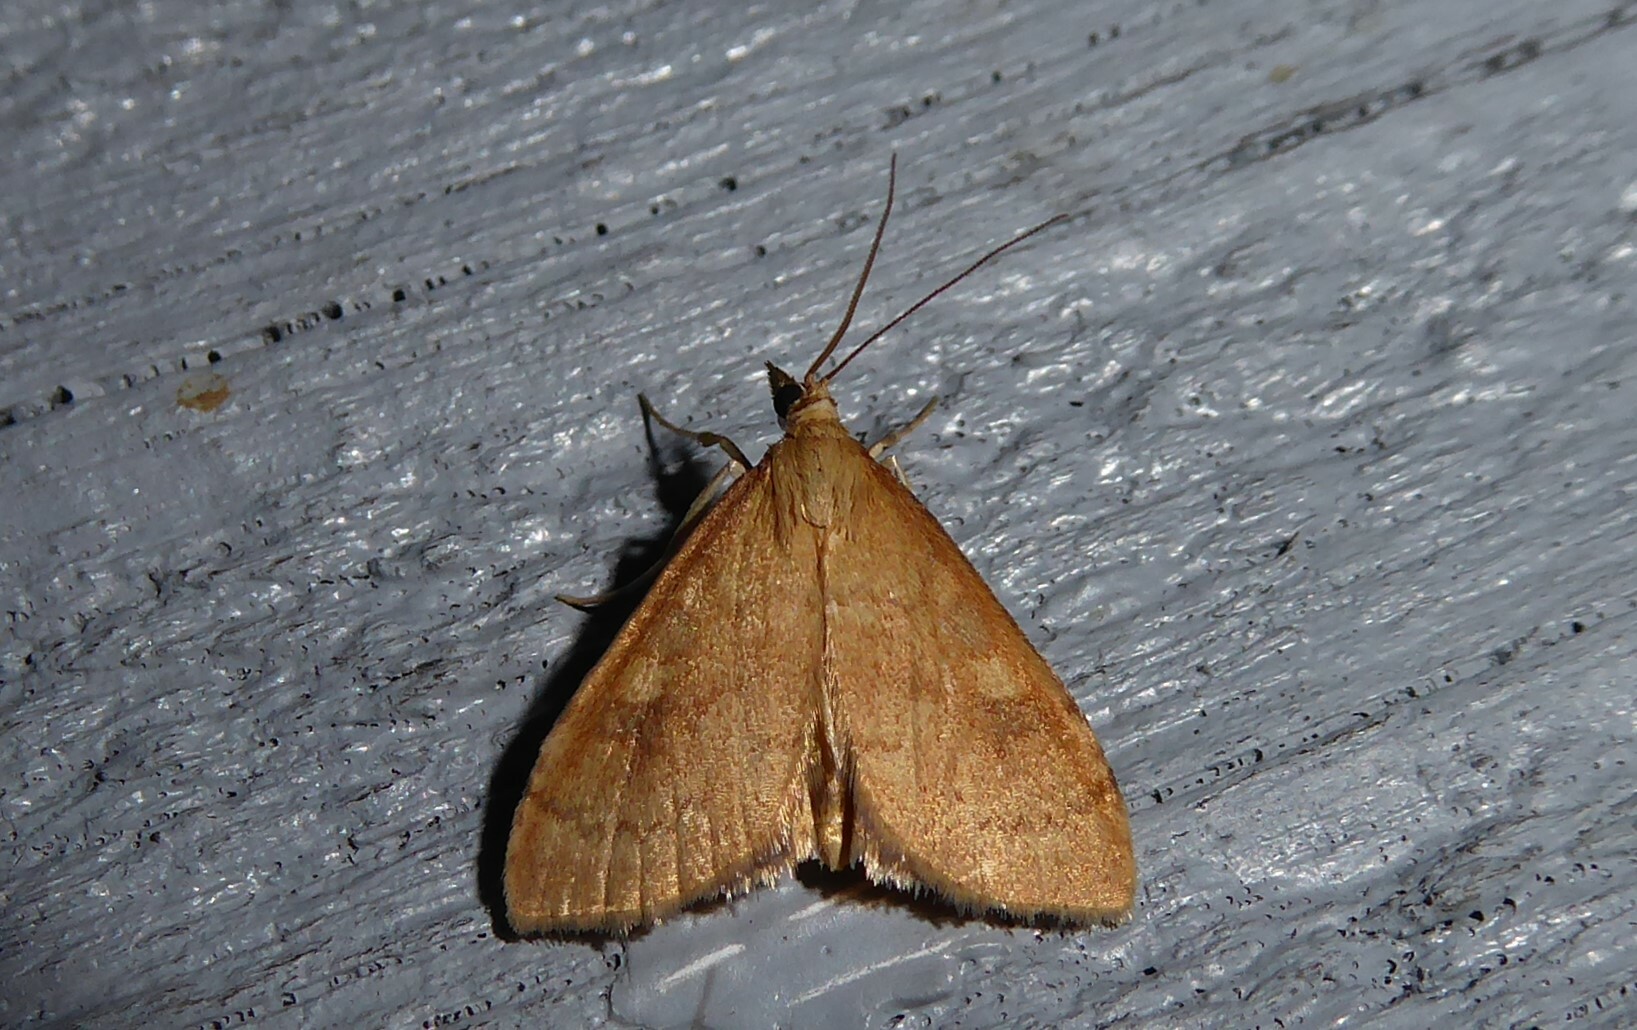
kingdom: Animalia
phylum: Arthropoda
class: Insecta
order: Lepidoptera
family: Crambidae
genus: Udea
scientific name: Udea Mnesictena flavidalis
